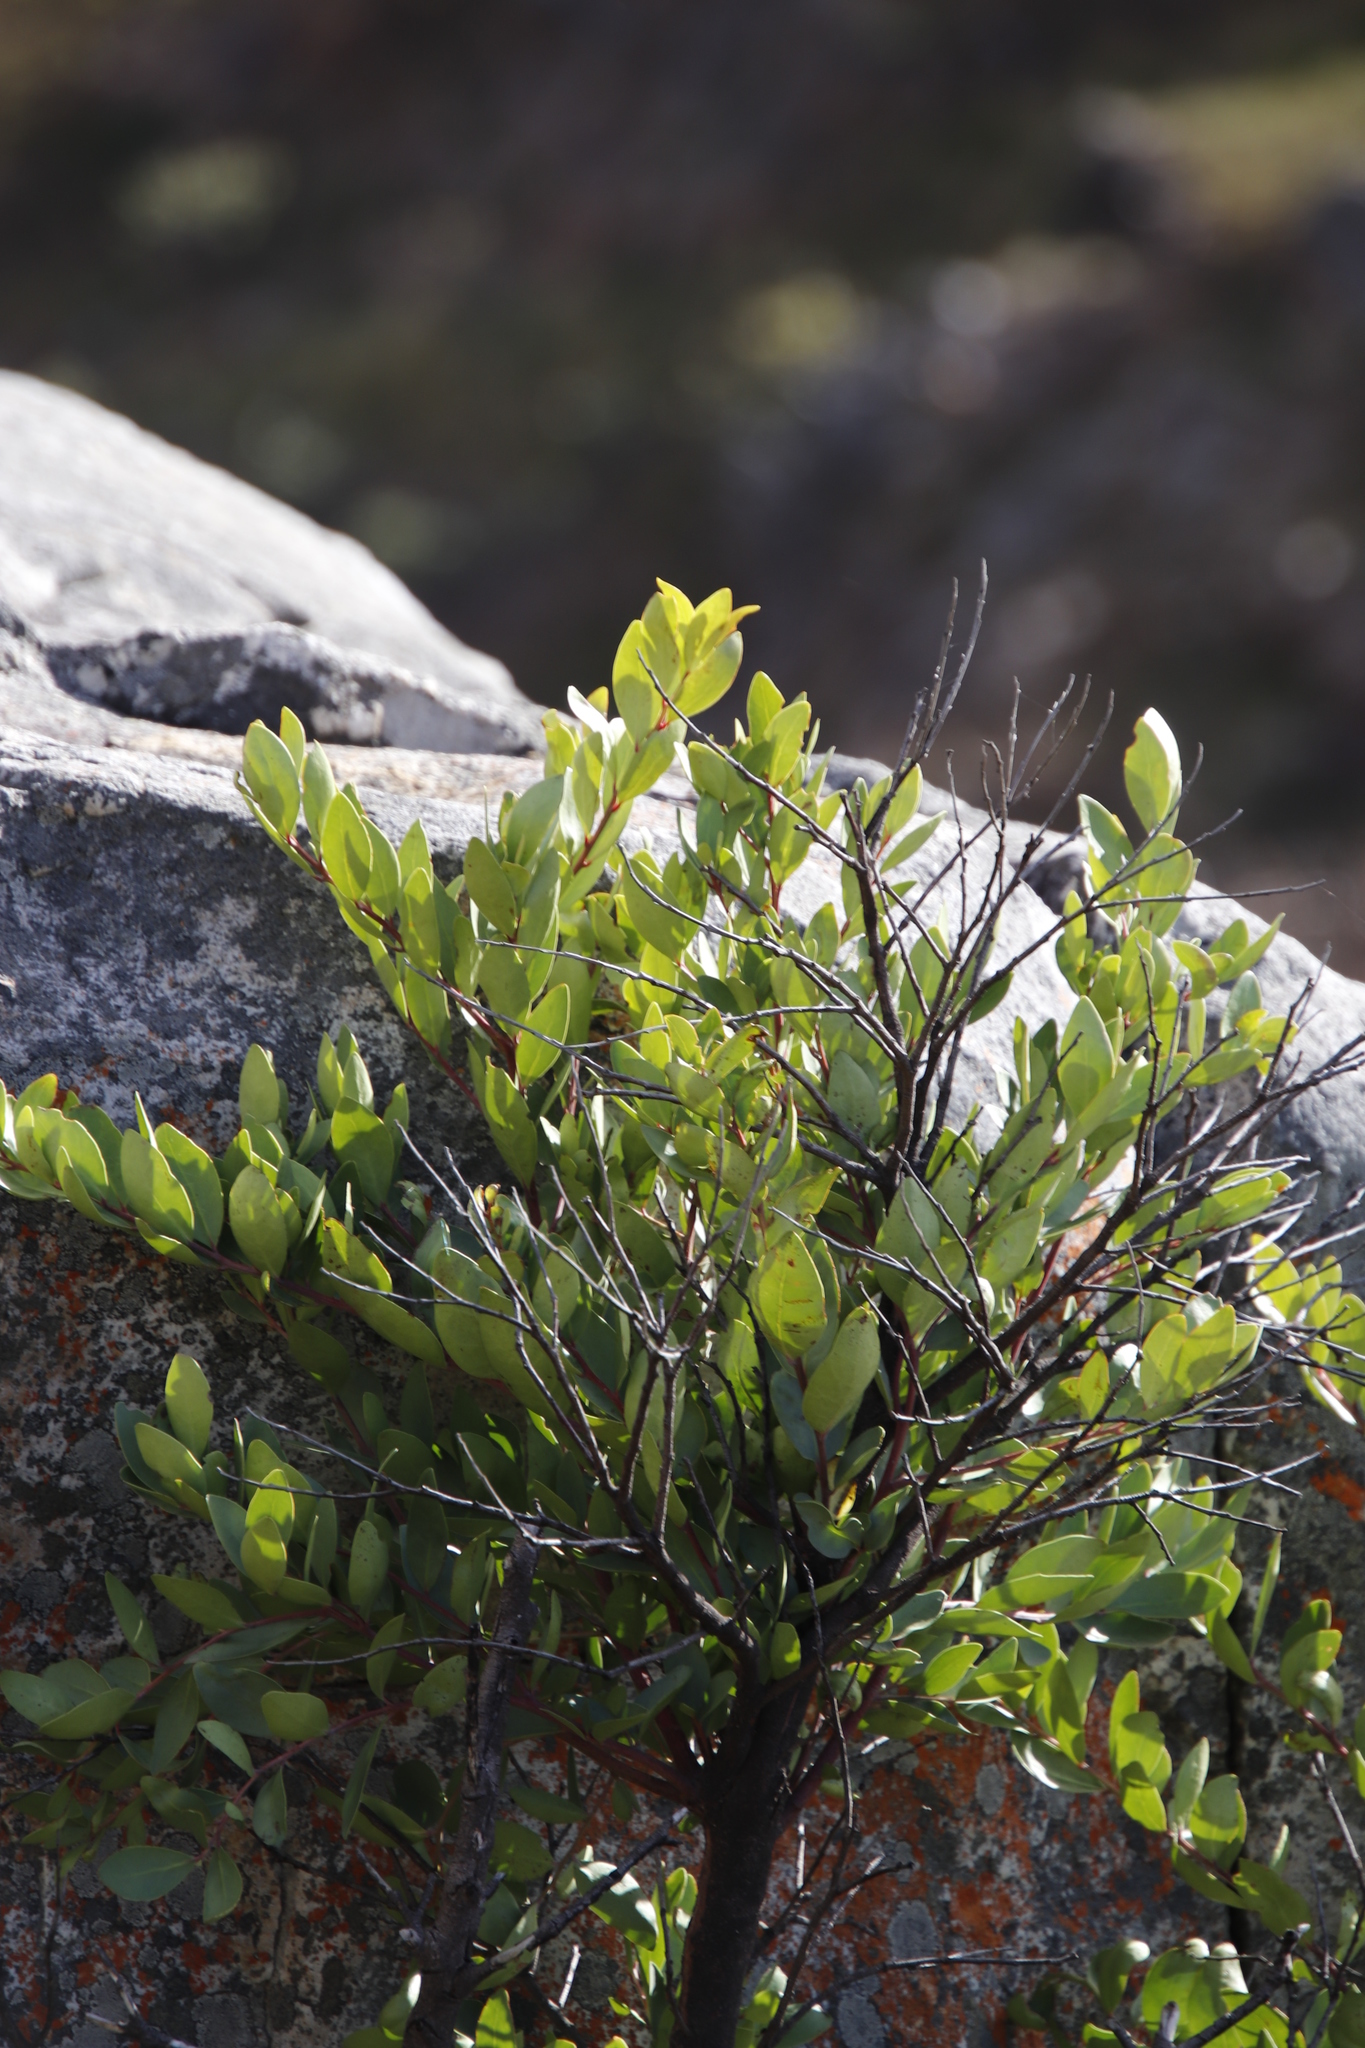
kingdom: Plantae
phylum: Tracheophyta
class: Magnoliopsida
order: Celastrales
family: Celastraceae
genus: Gymnosporia
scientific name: Gymnosporia laurina
